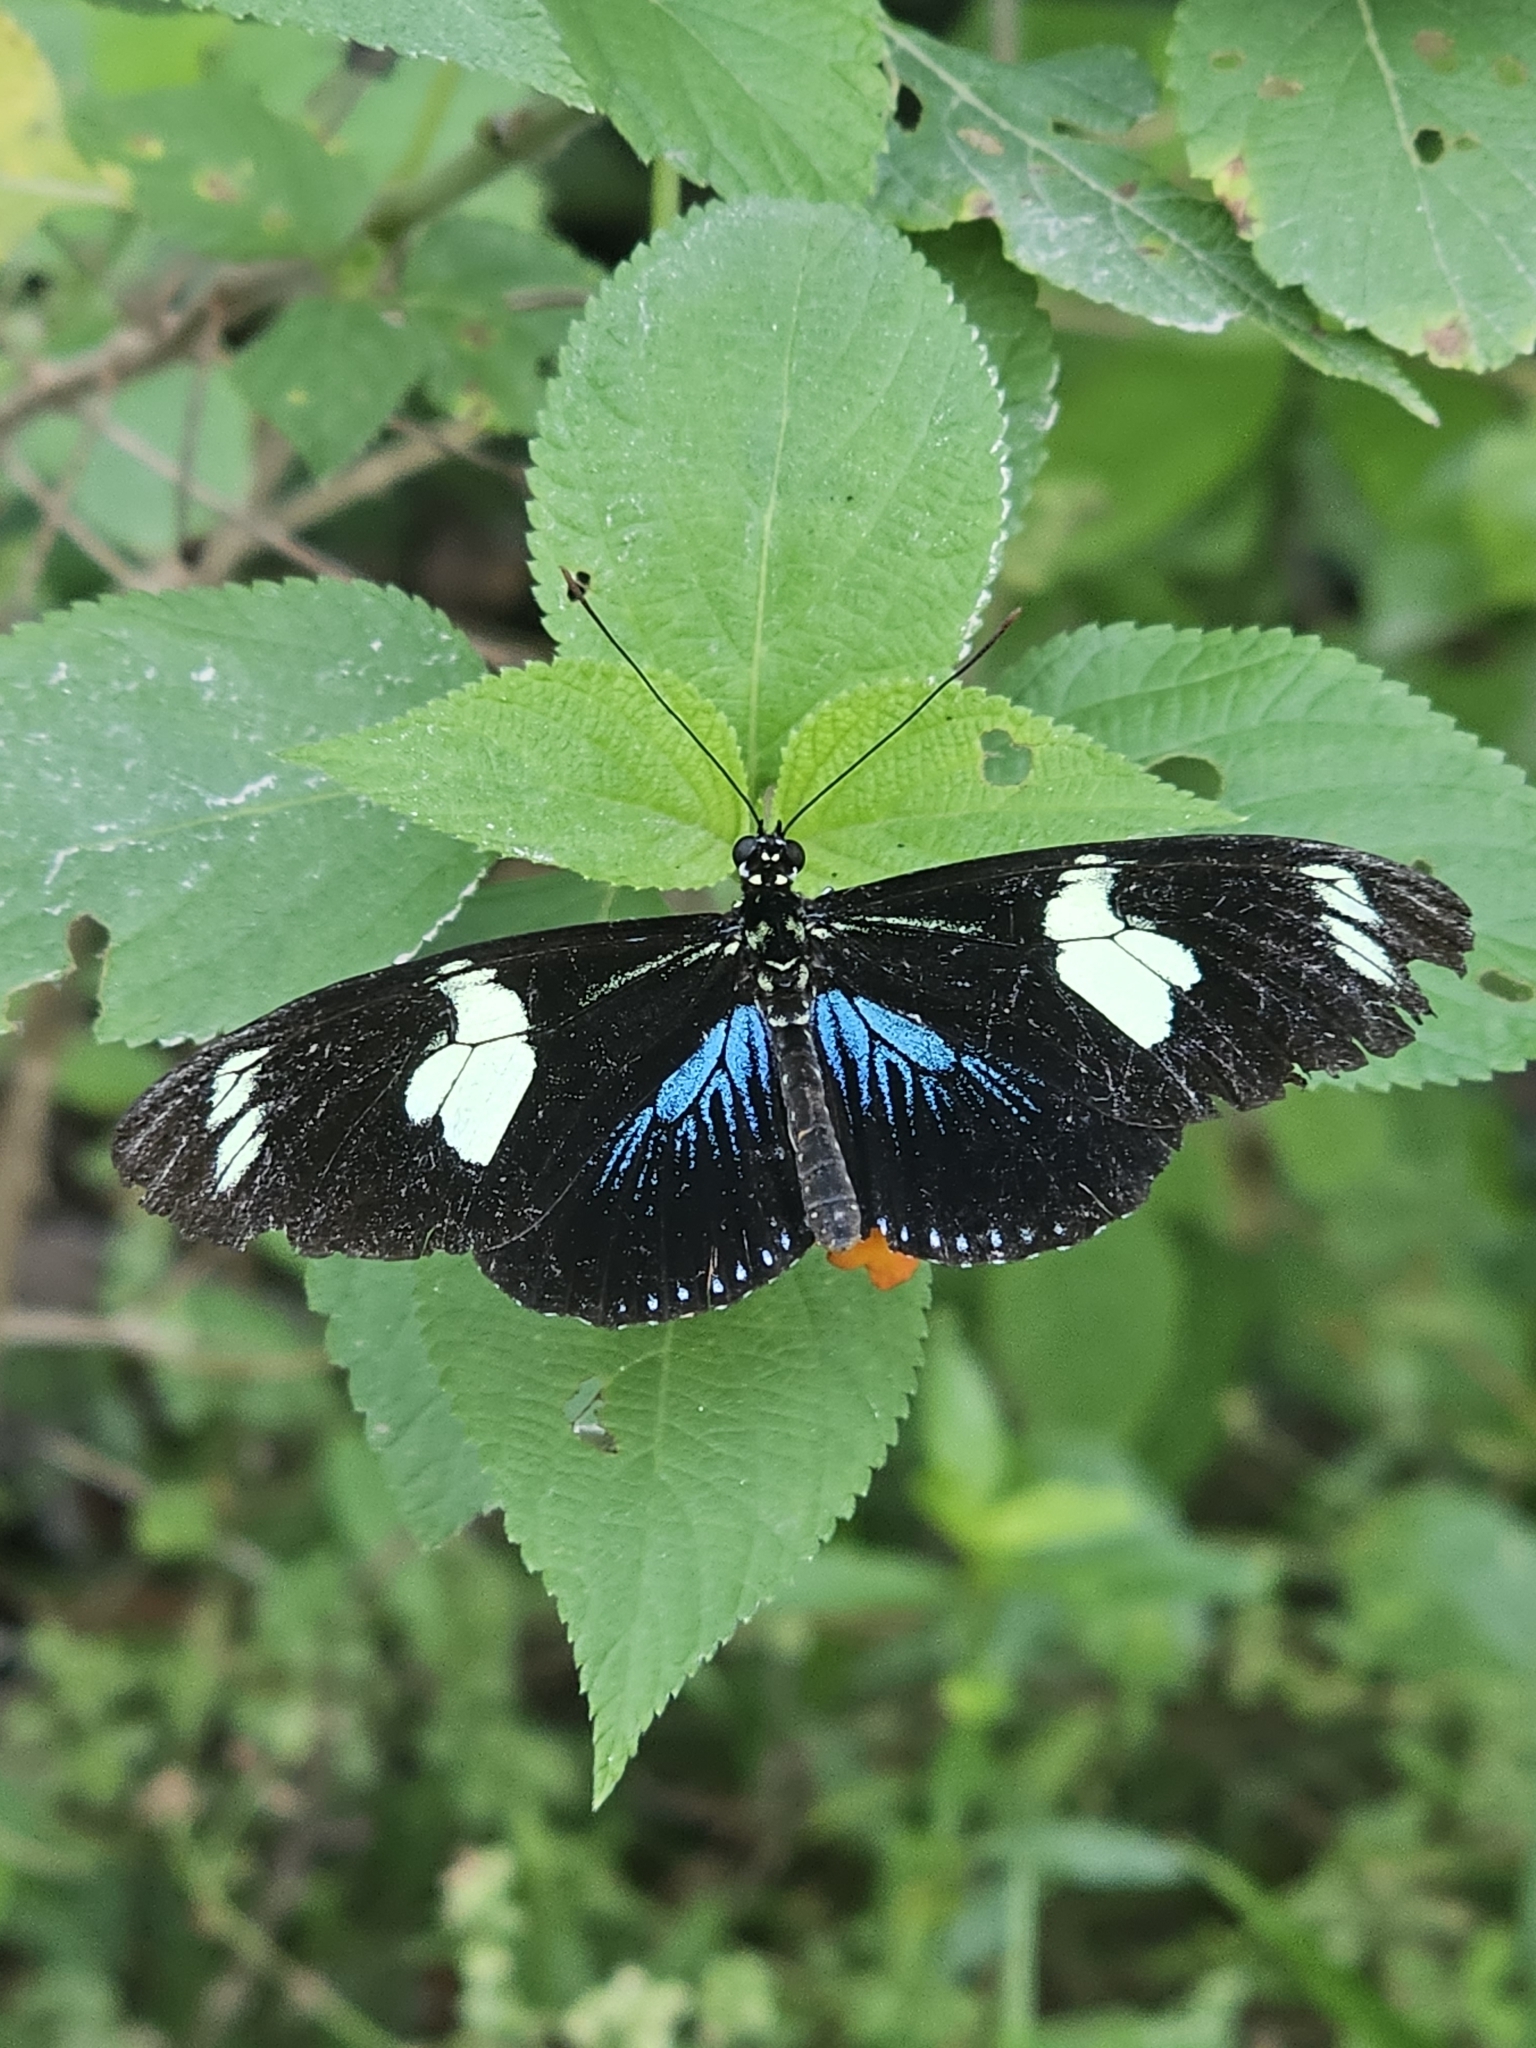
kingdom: Animalia
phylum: Arthropoda
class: Insecta
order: Lepidoptera
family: Nymphalidae
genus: Heliconius
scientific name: Heliconius doris
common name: Doris longwing
